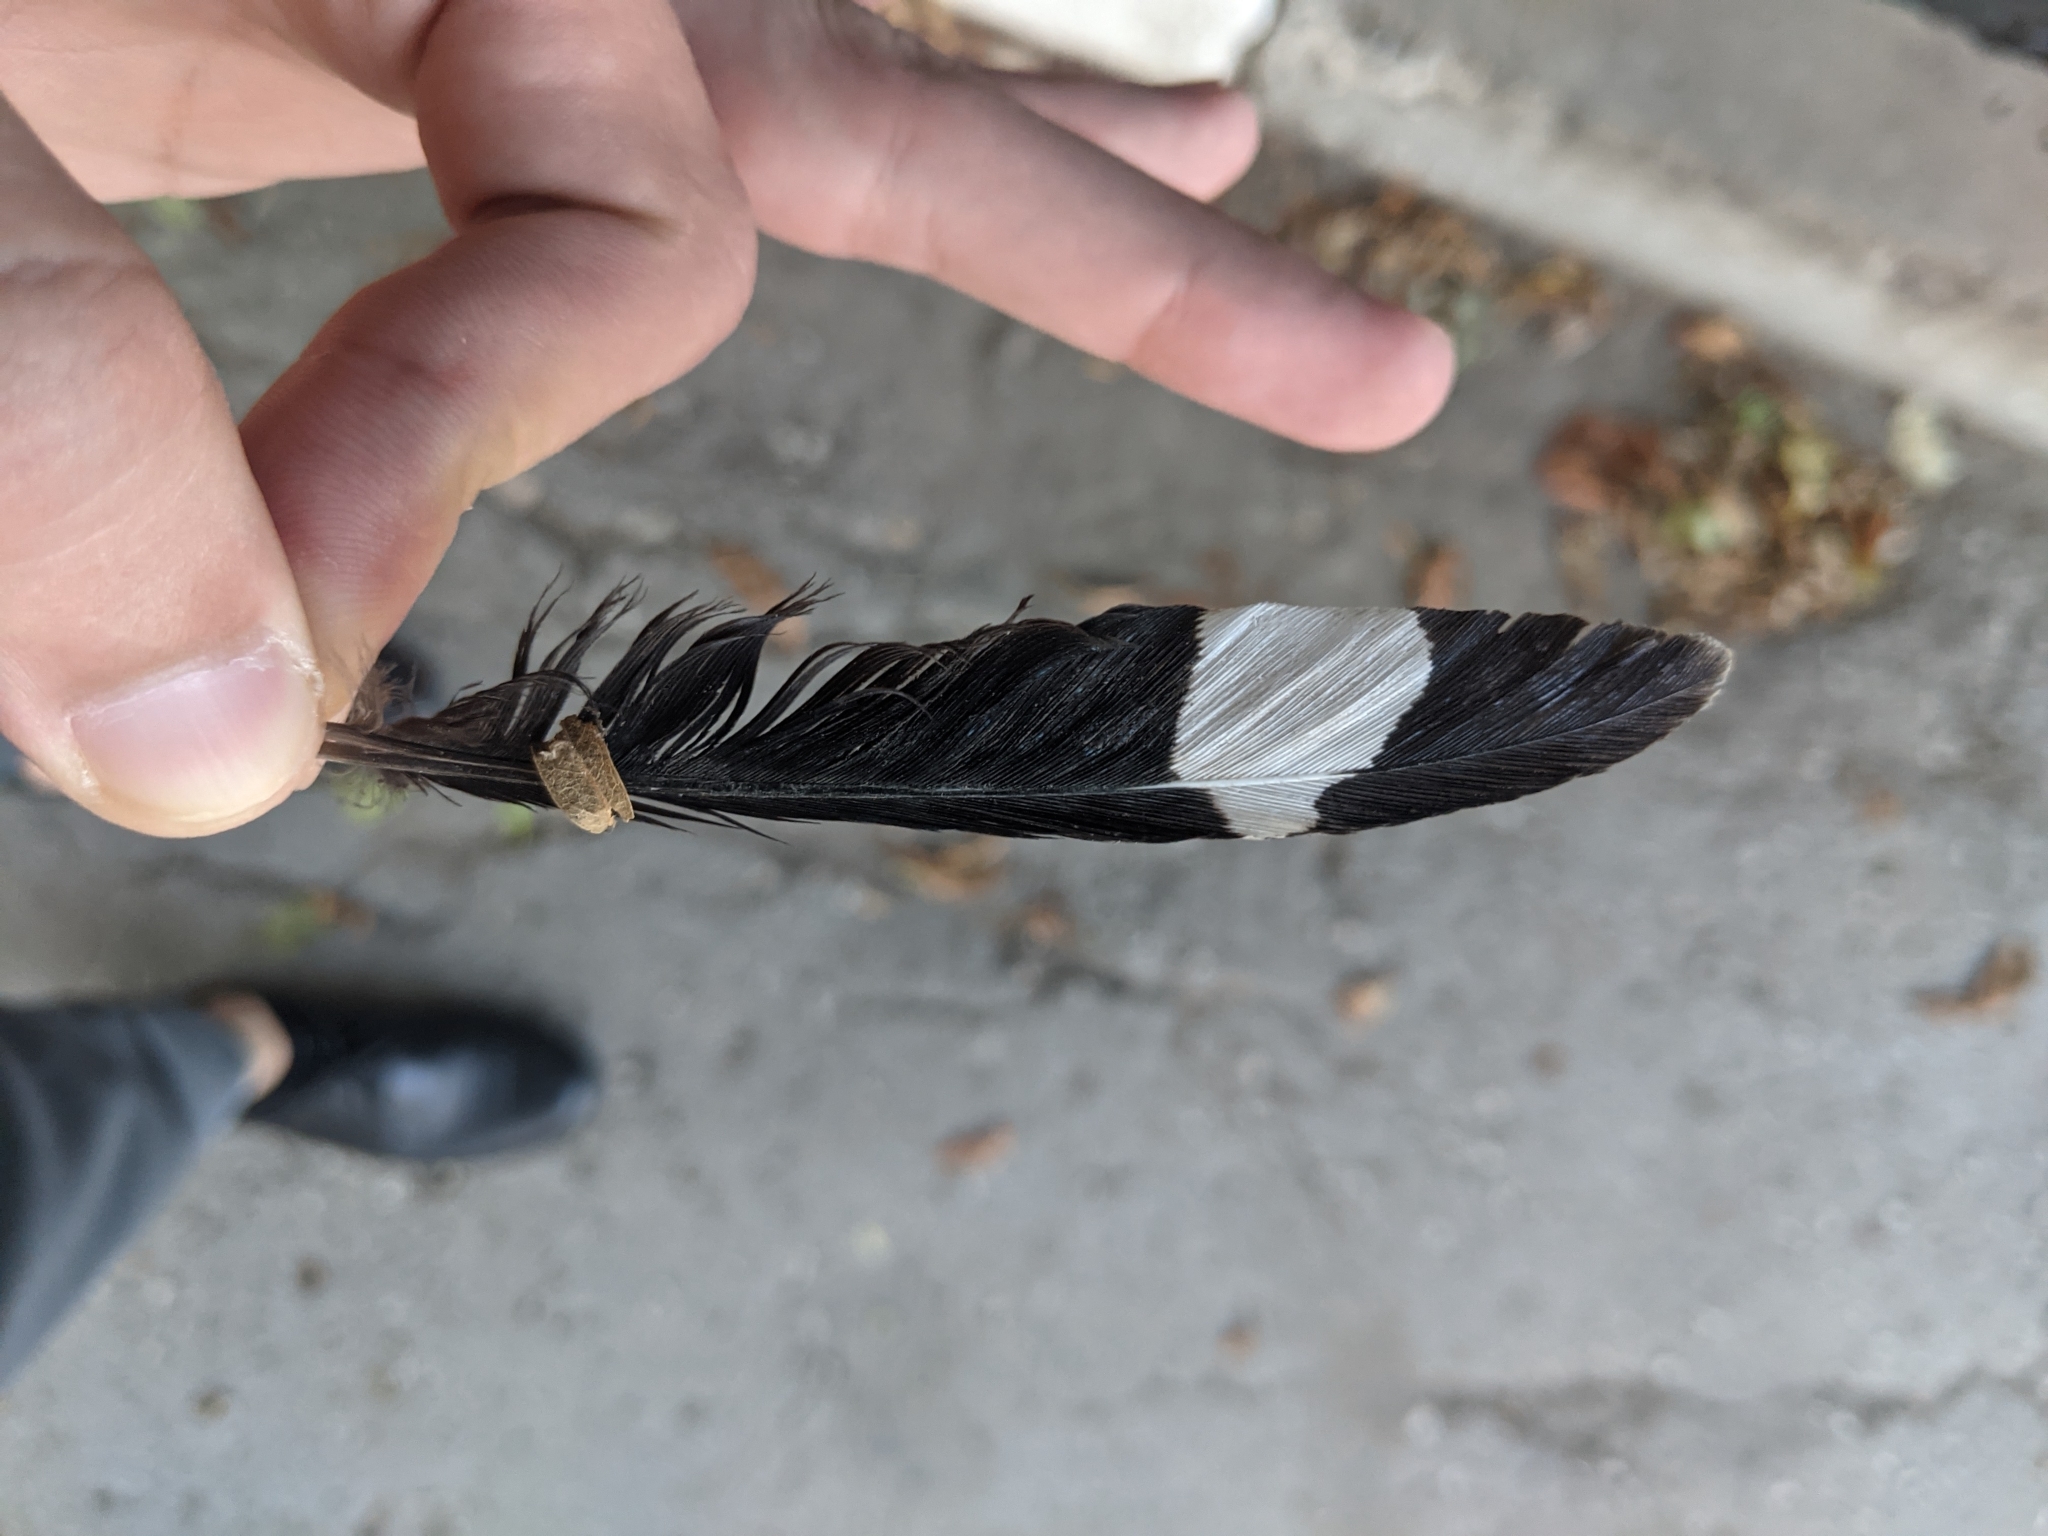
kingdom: Animalia
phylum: Chordata
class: Aves
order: Bucerotiformes
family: Upupidae
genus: Upupa
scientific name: Upupa epops
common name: Eurasian hoopoe
